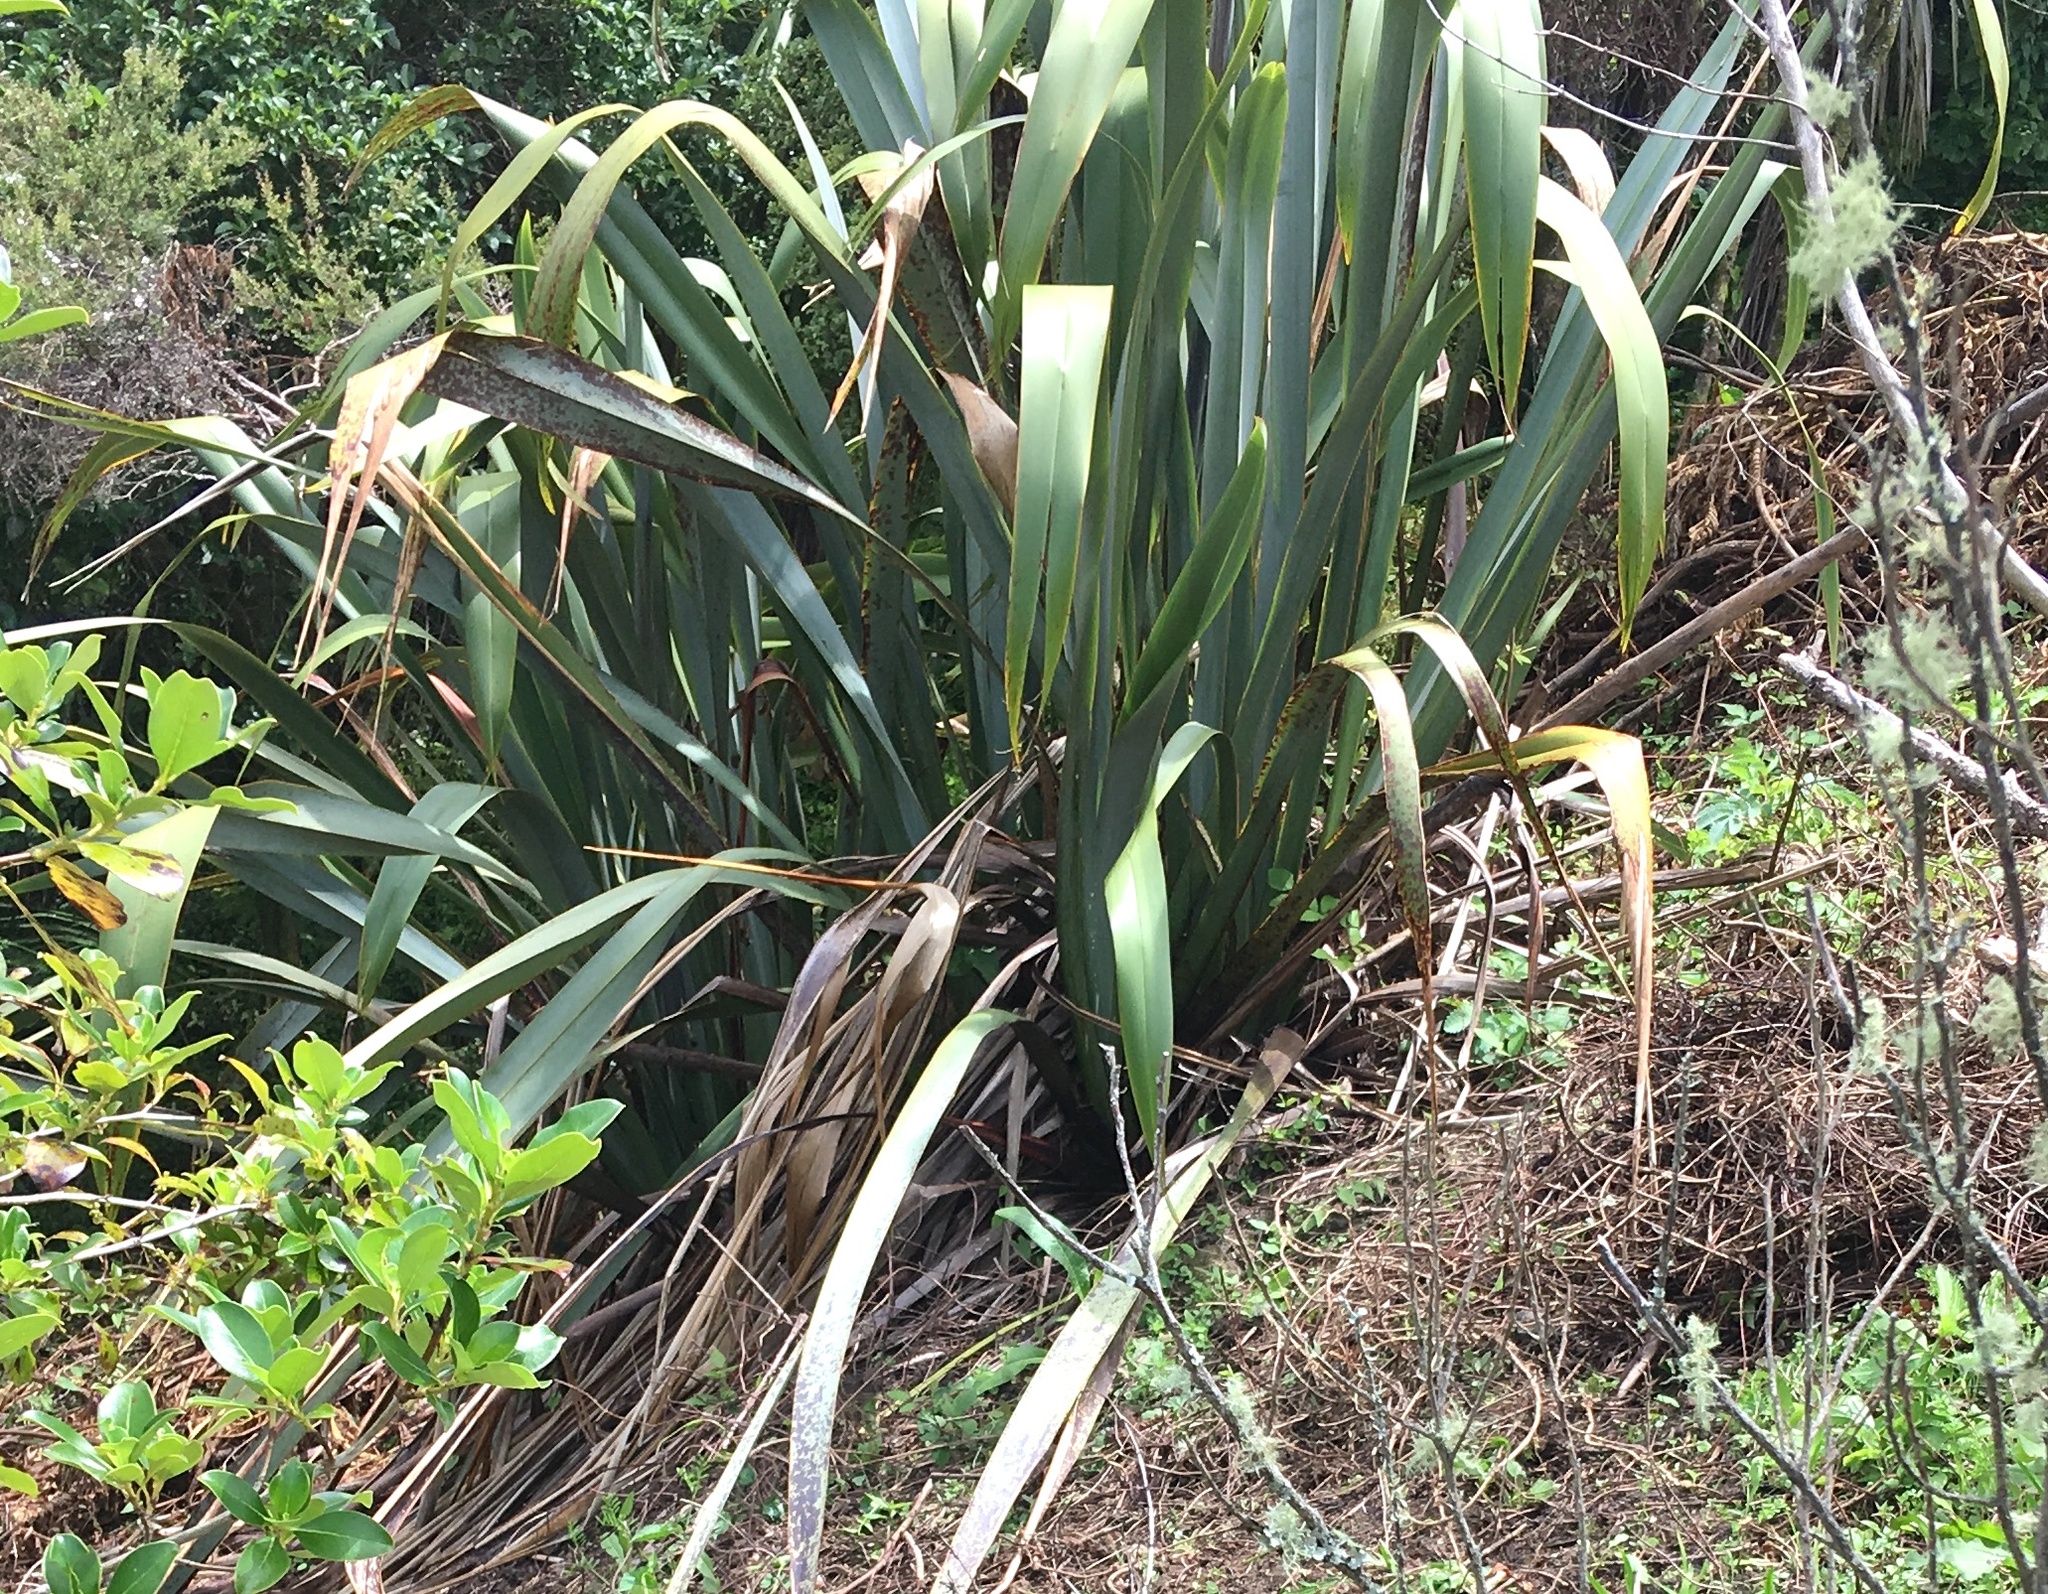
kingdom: Plantae
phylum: Tracheophyta
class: Liliopsida
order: Asparagales
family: Asphodelaceae
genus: Phormium
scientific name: Phormium tenax
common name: New zealand flax
